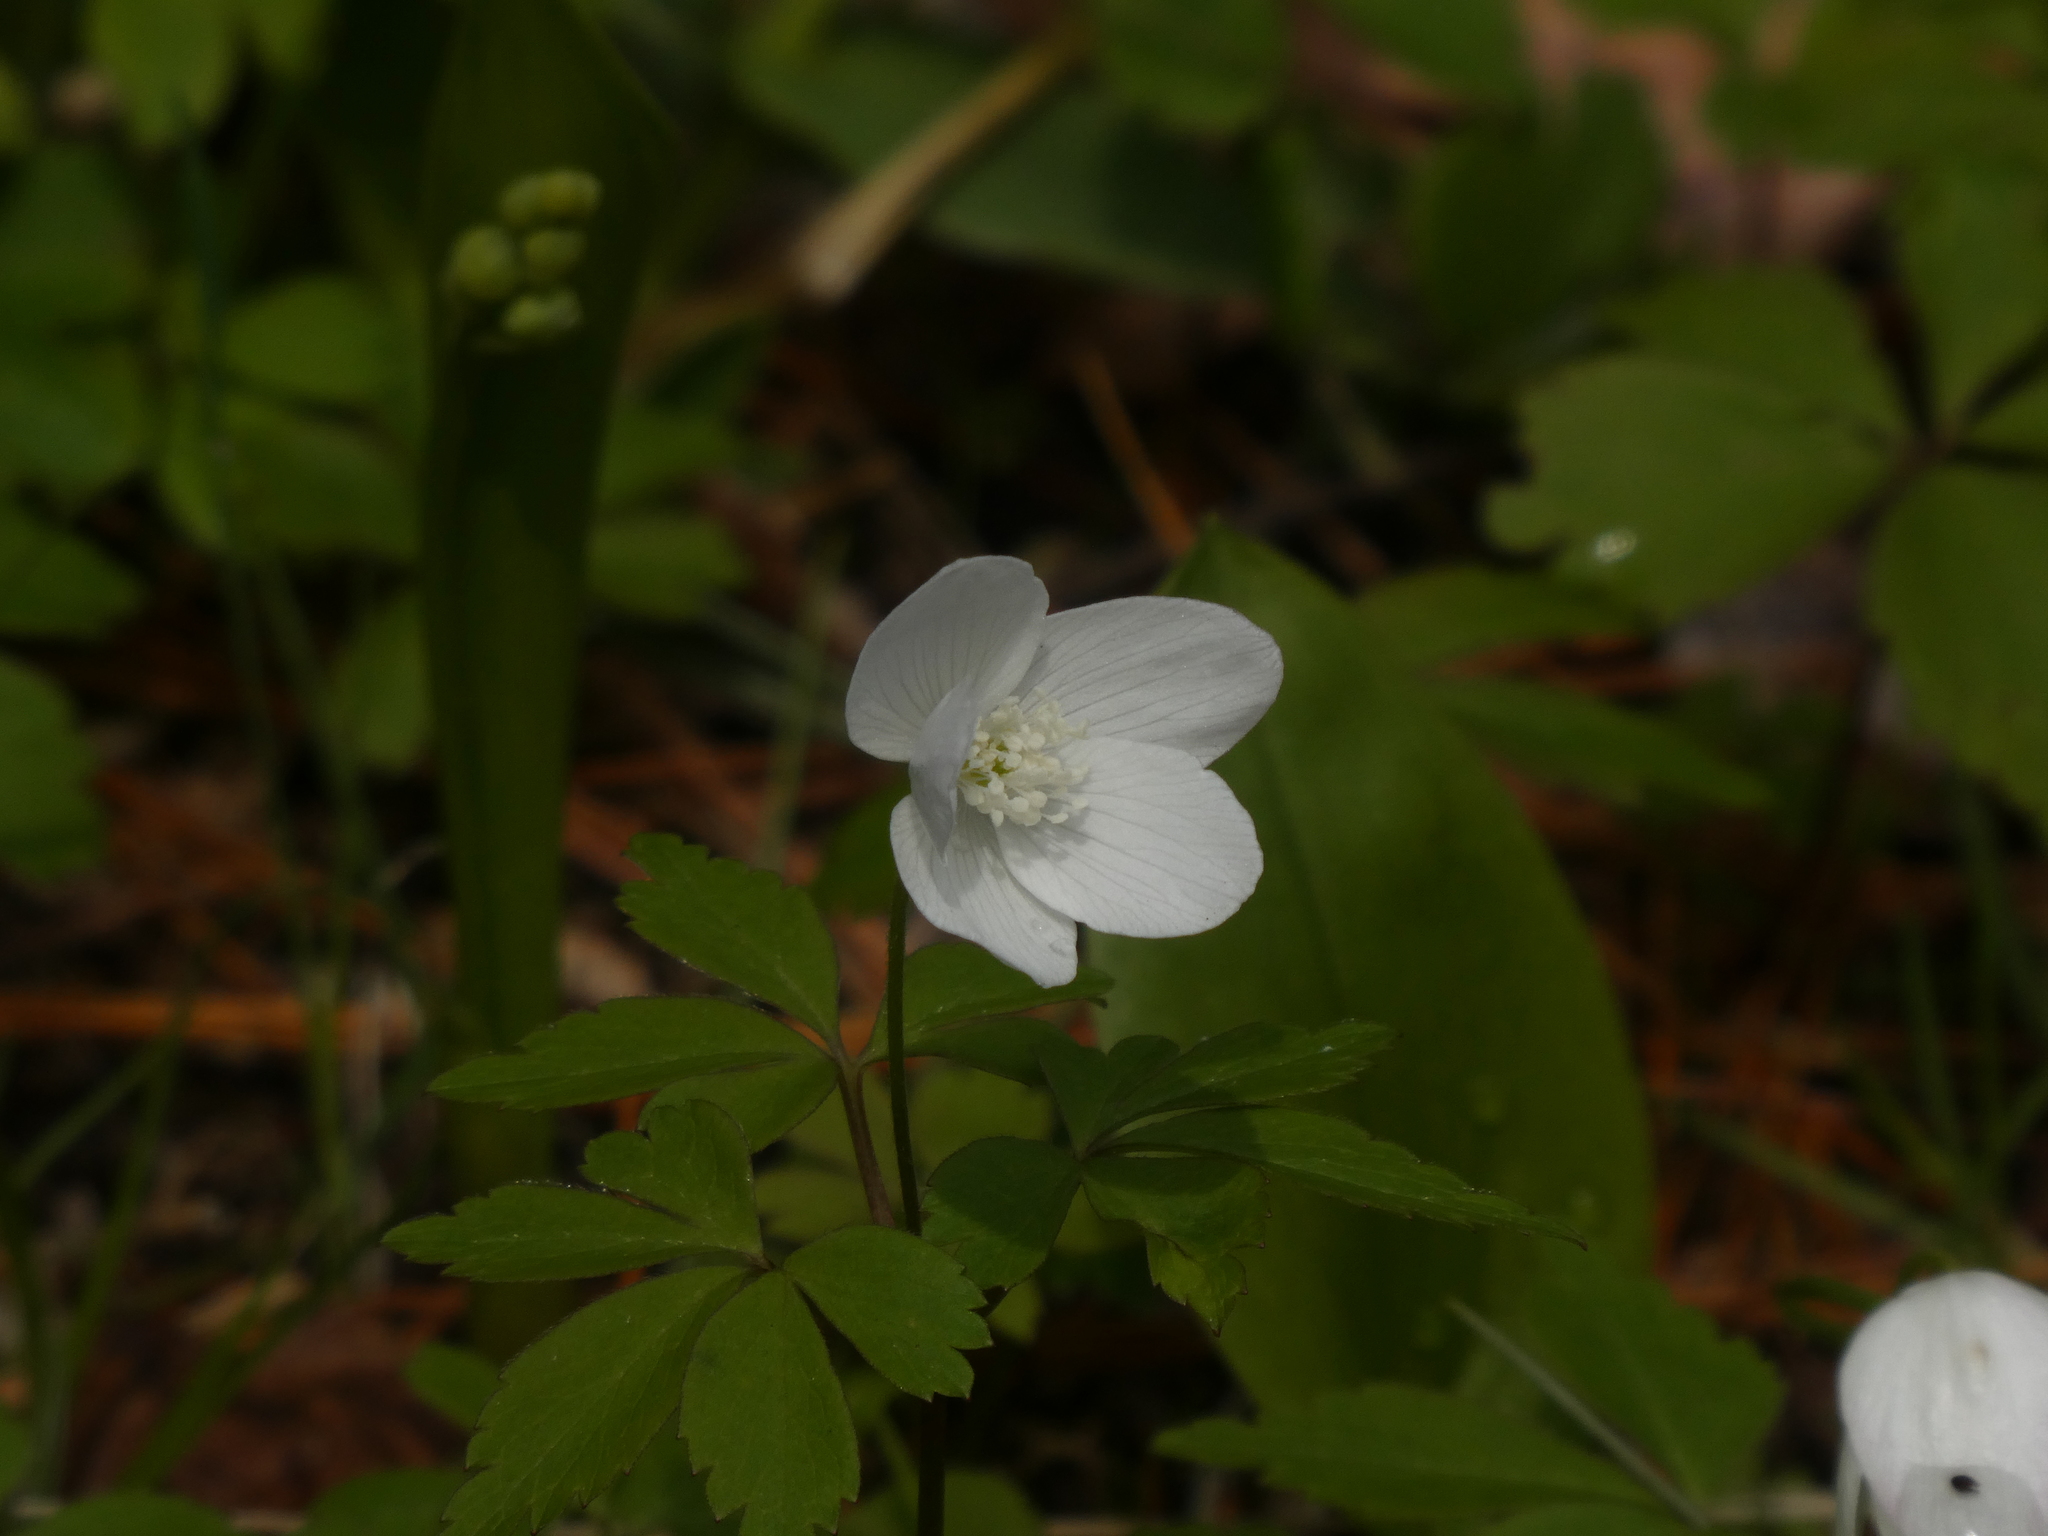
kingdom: Plantae
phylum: Tracheophyta
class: Magnoliopsida
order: Ranunculales
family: Ranunculaceae
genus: Anemone
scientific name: Anemone quinquefolia
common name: Wood anemone
